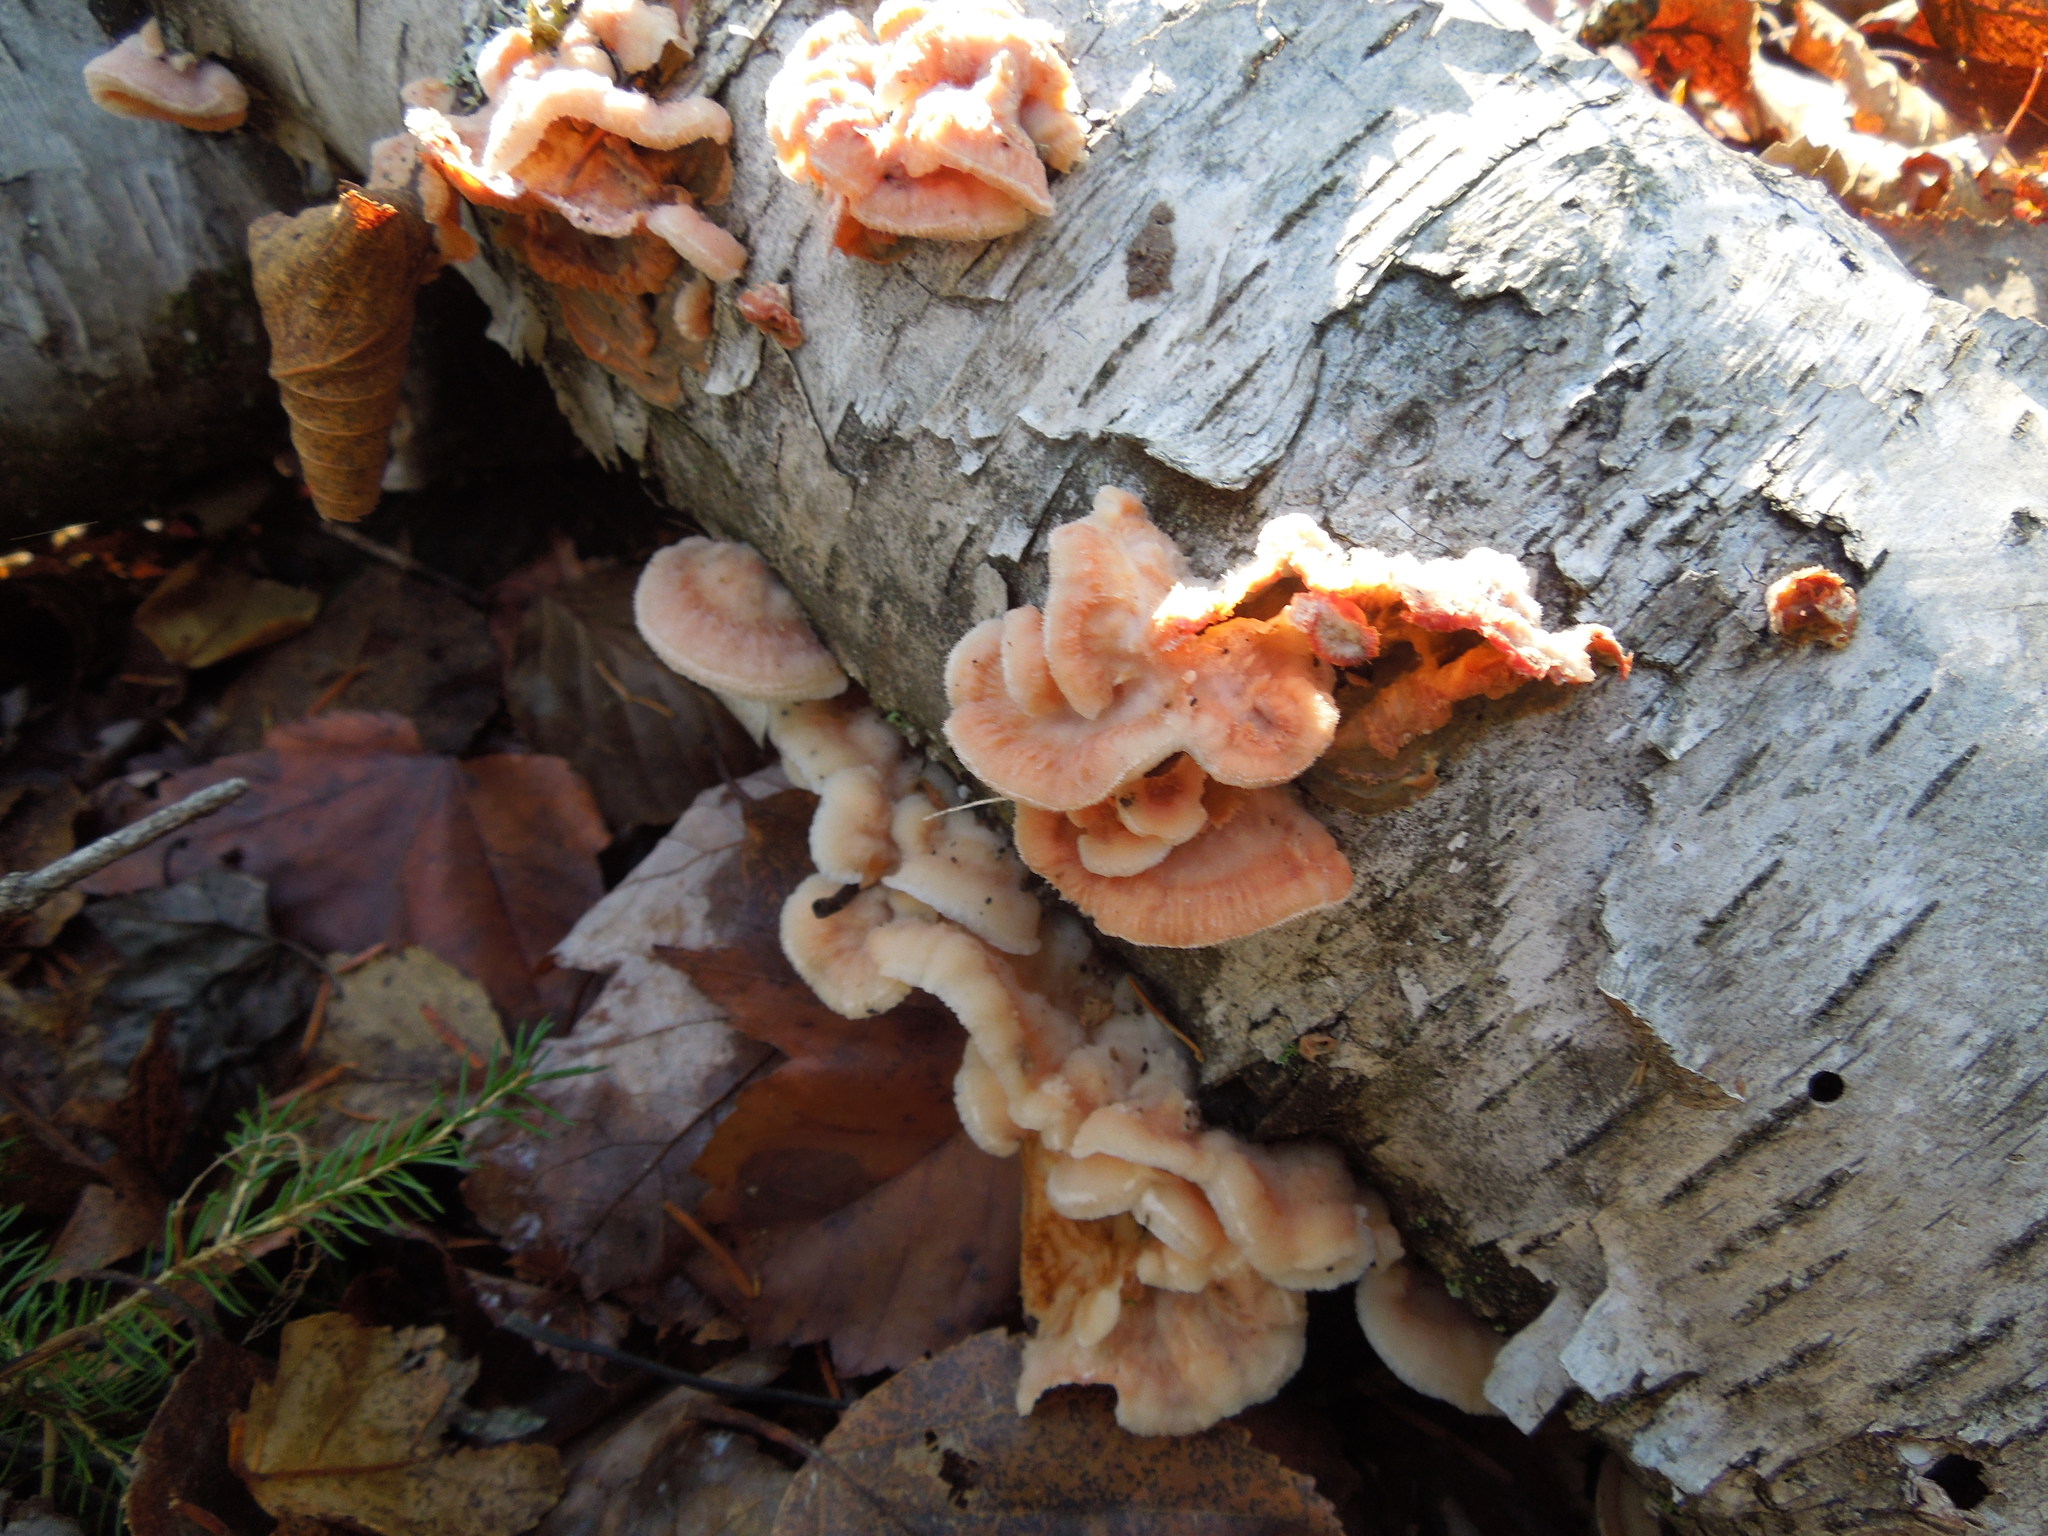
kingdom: Fungi
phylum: Basidiomycota
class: Agaricomycetes
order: Polyporales
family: Meruliaceae
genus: Phlebia
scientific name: Phlebia tremellosa
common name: Jelly rot
